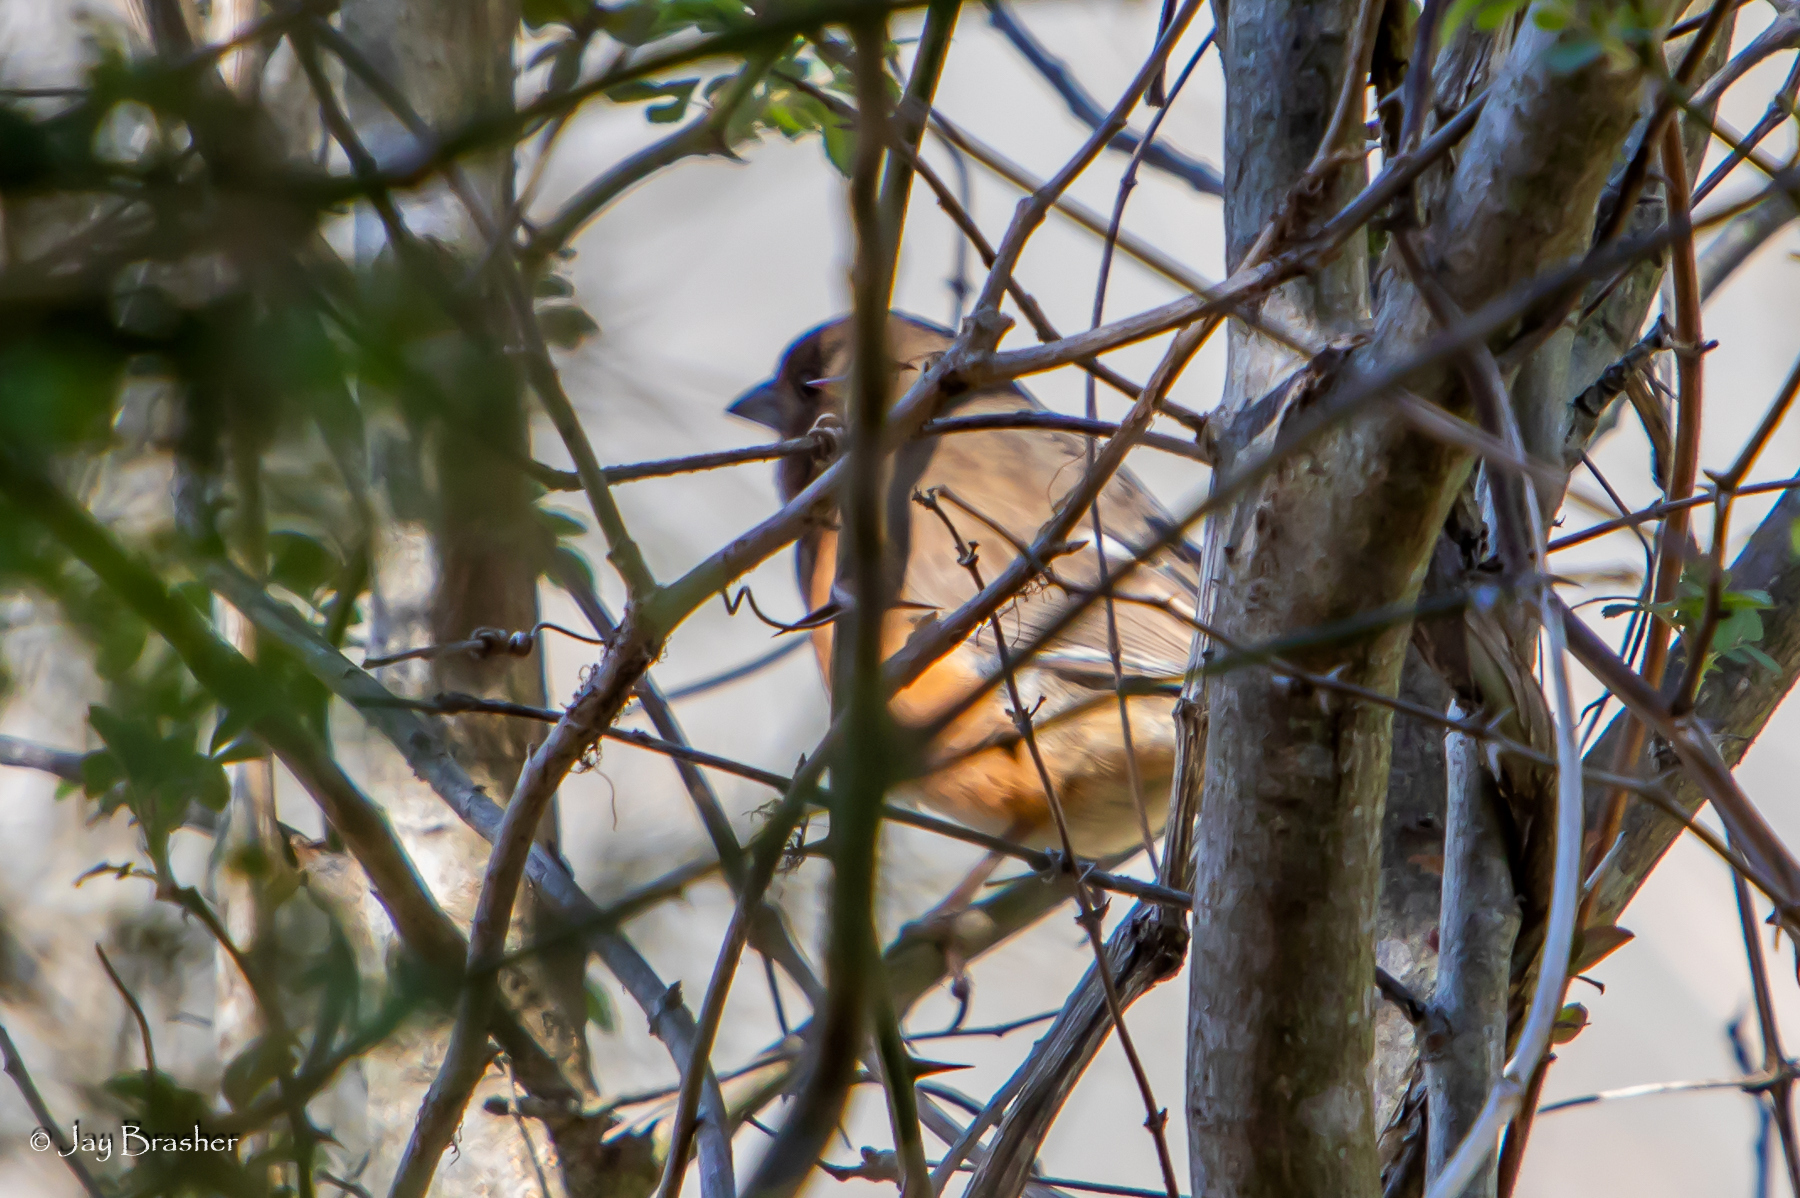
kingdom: Animalia
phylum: Chordata
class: Aves
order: Passeriformes
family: Passerellidae
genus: Pipilo
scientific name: Pipilo erythrophthalmus
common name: Eastern towhee
